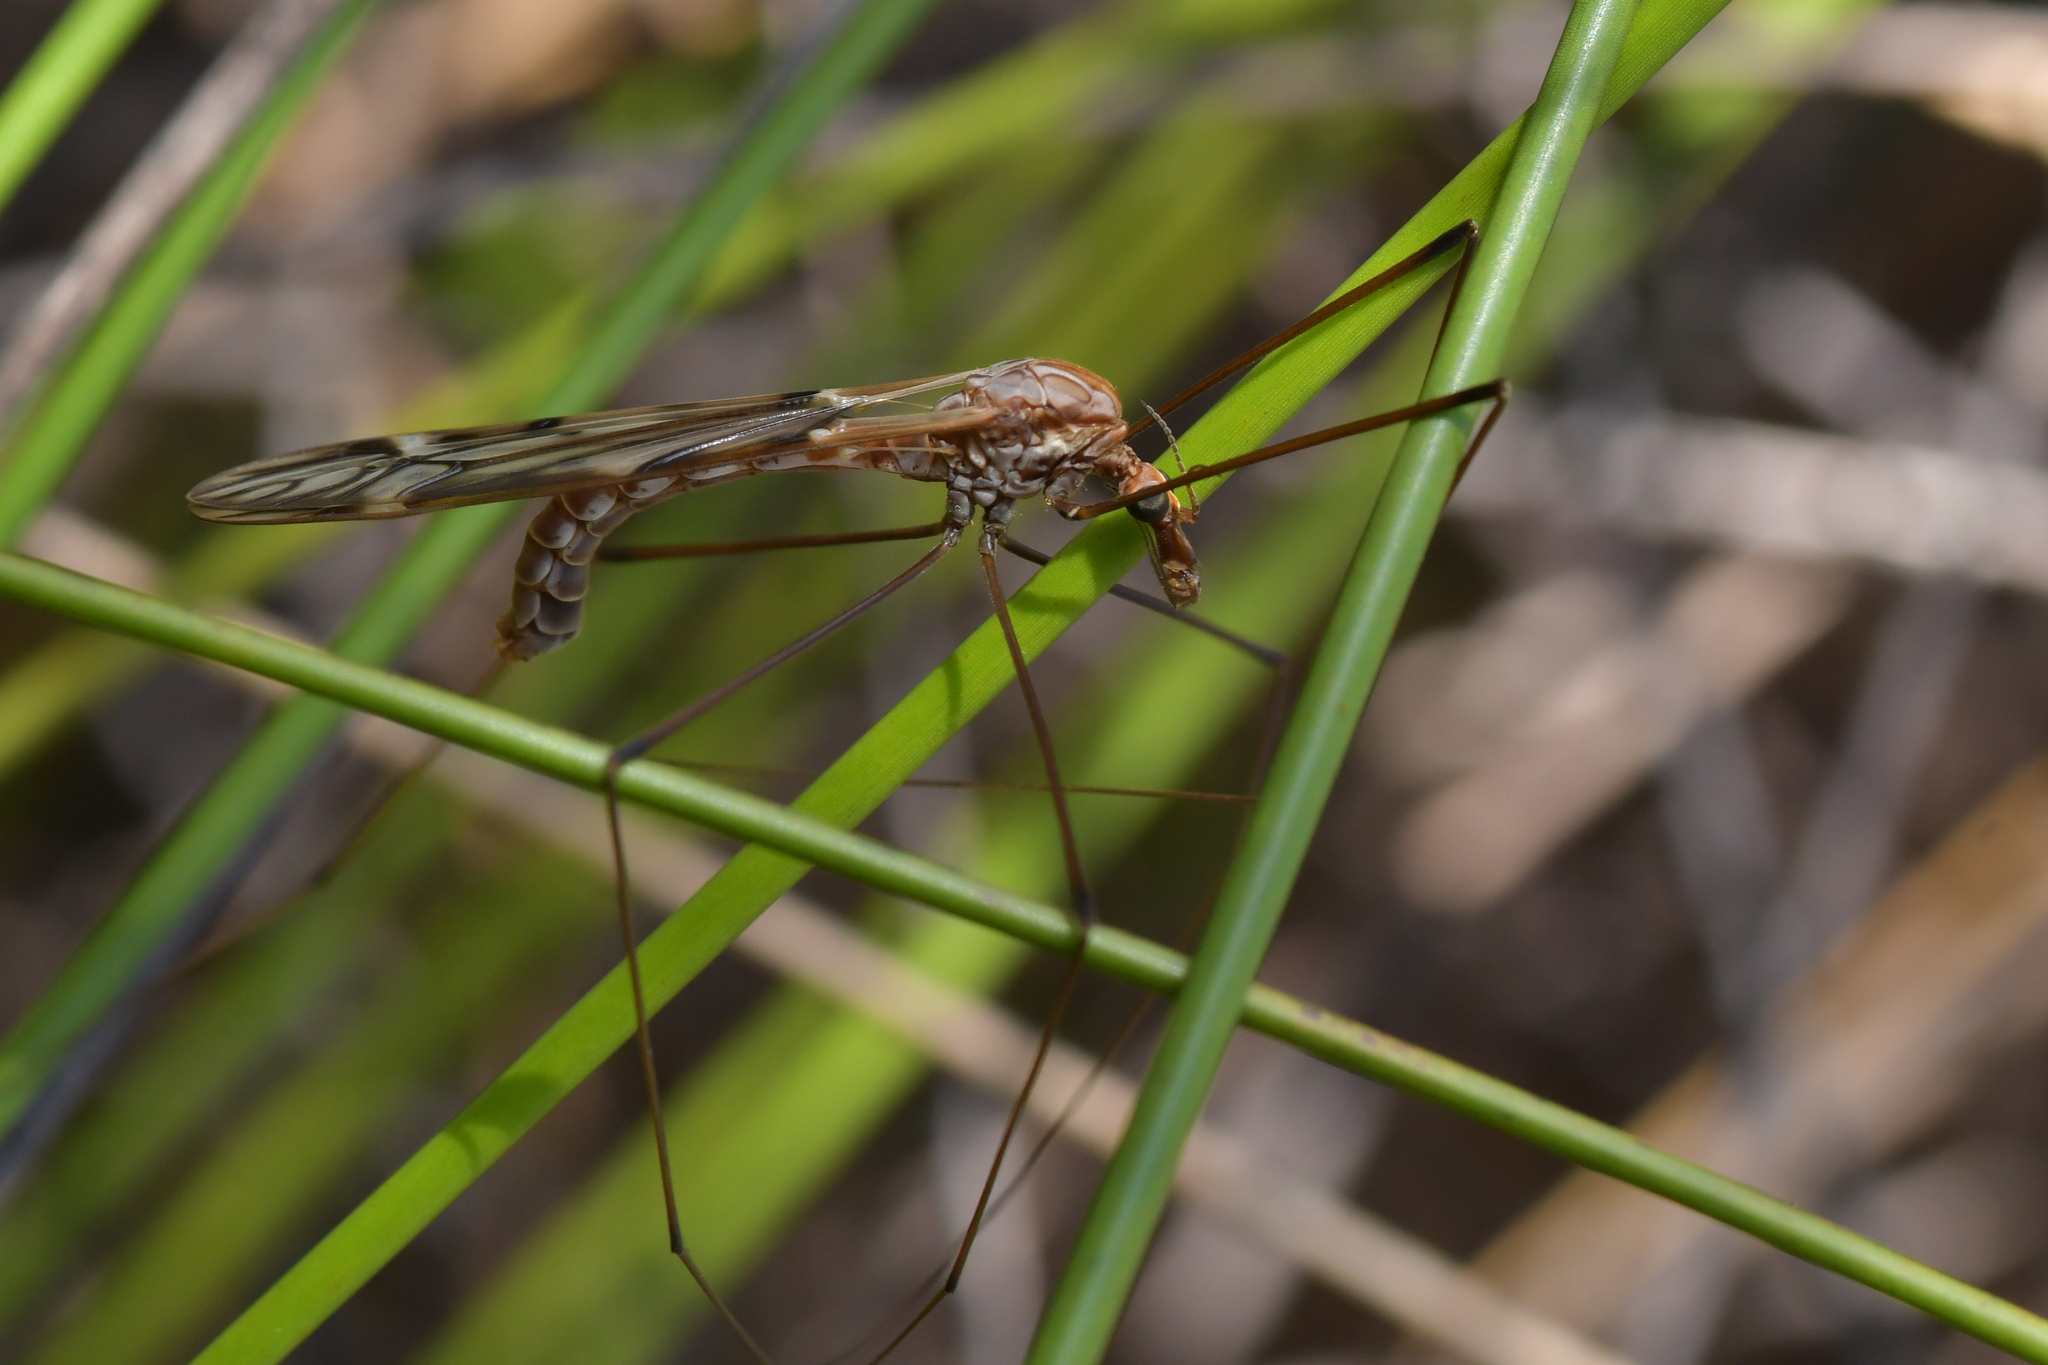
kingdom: Animalia
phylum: Arthropoda
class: Insecta
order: Diptera
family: Tipulidae
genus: Zelandotipula
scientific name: Zelandotipula novarae
